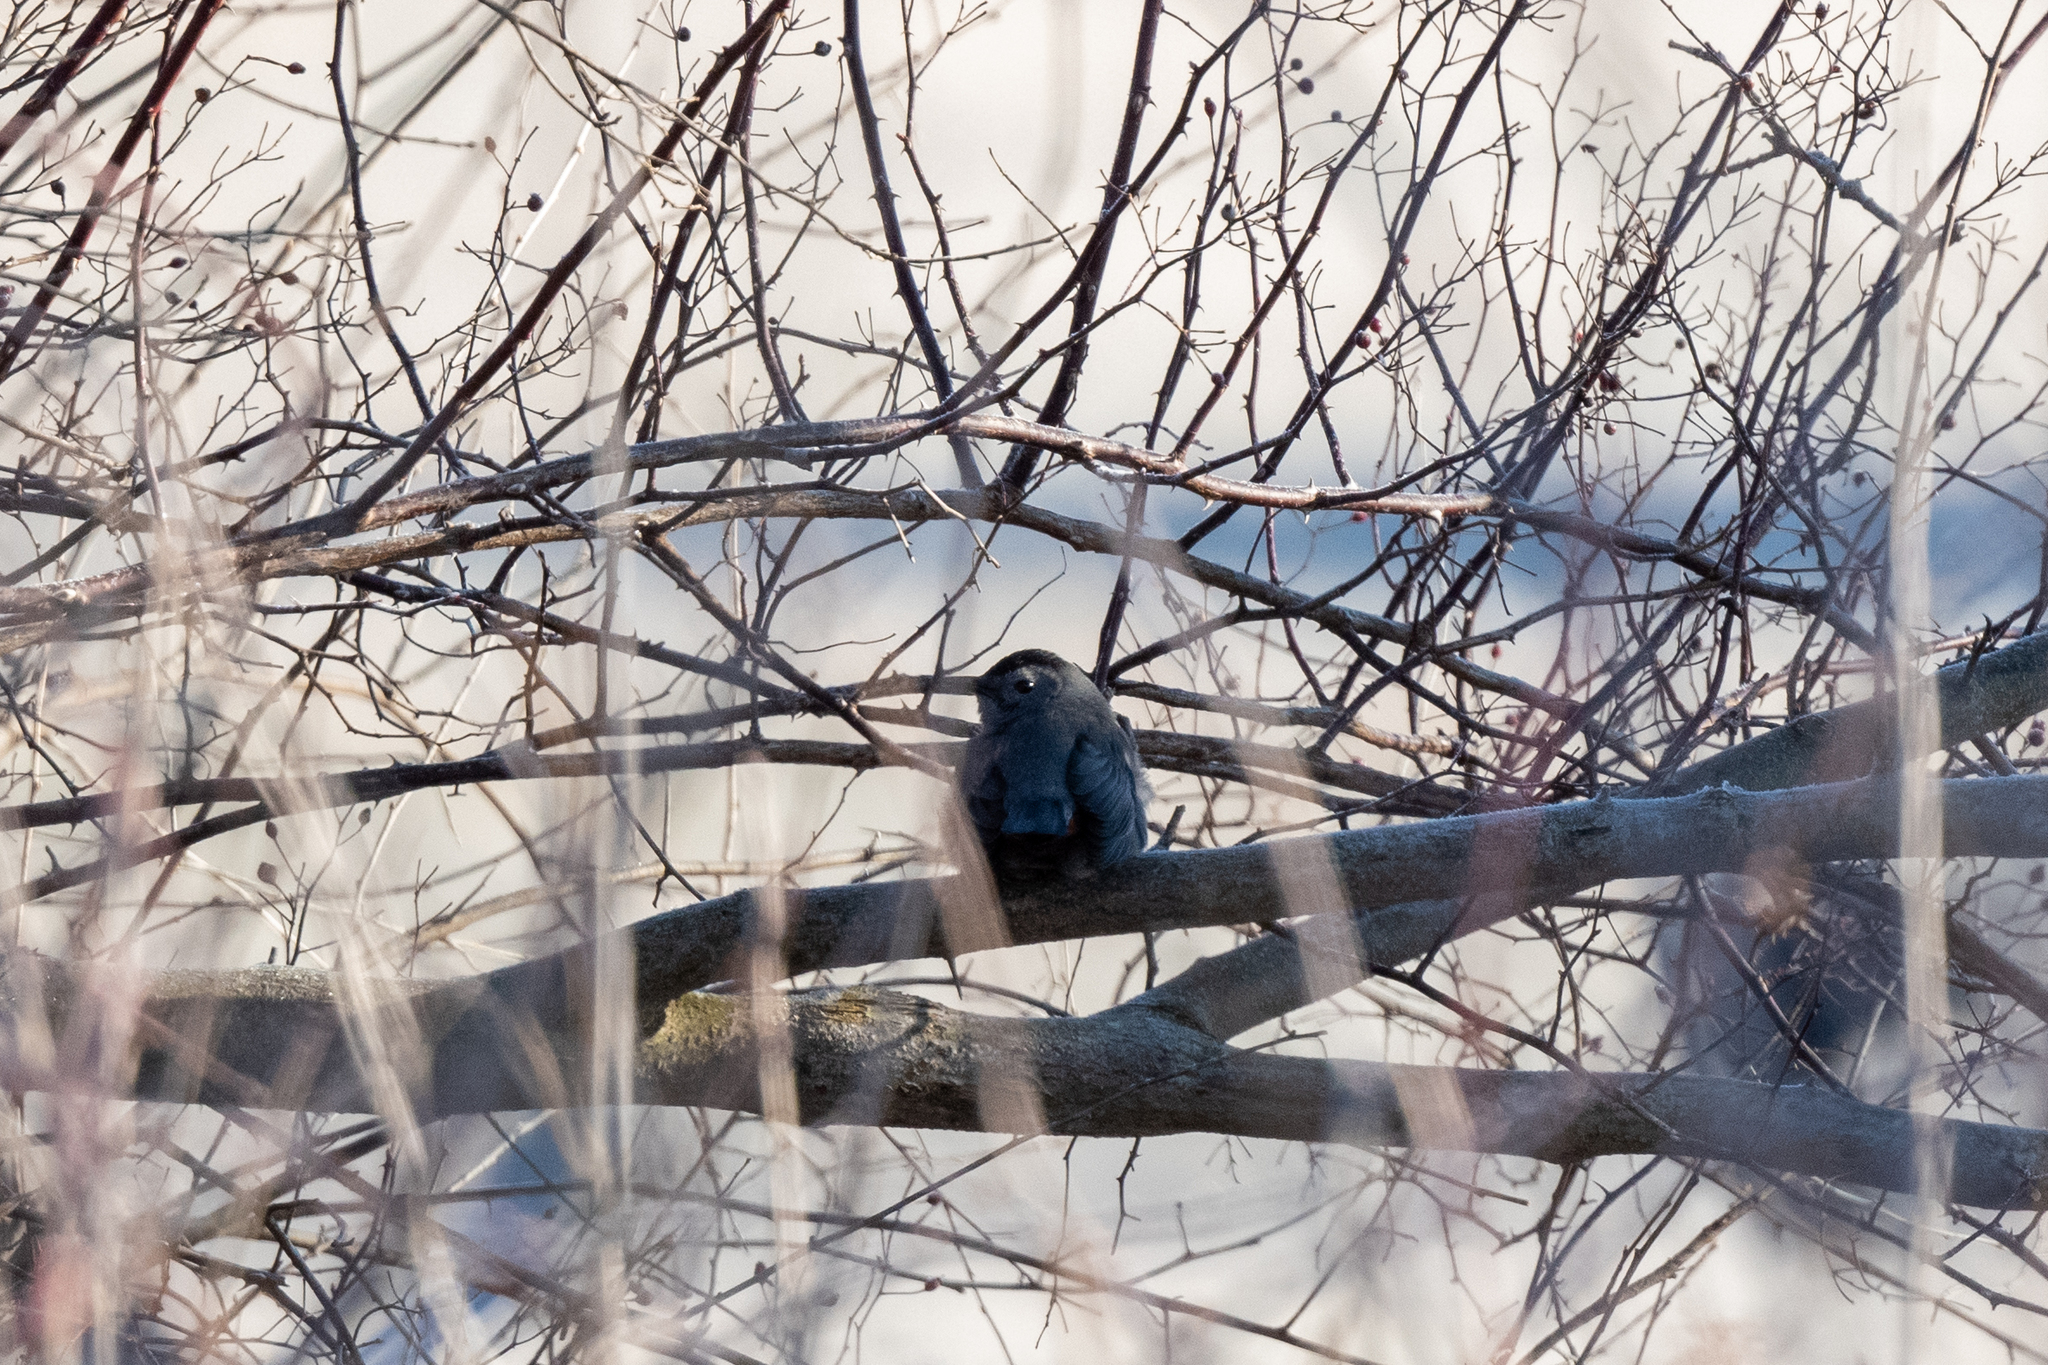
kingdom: Animalia
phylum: Chordata
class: Aves
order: Passeriformes
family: Mimidae
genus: Dumetella
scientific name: Dumetella carolinensis
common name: Gray catbird
